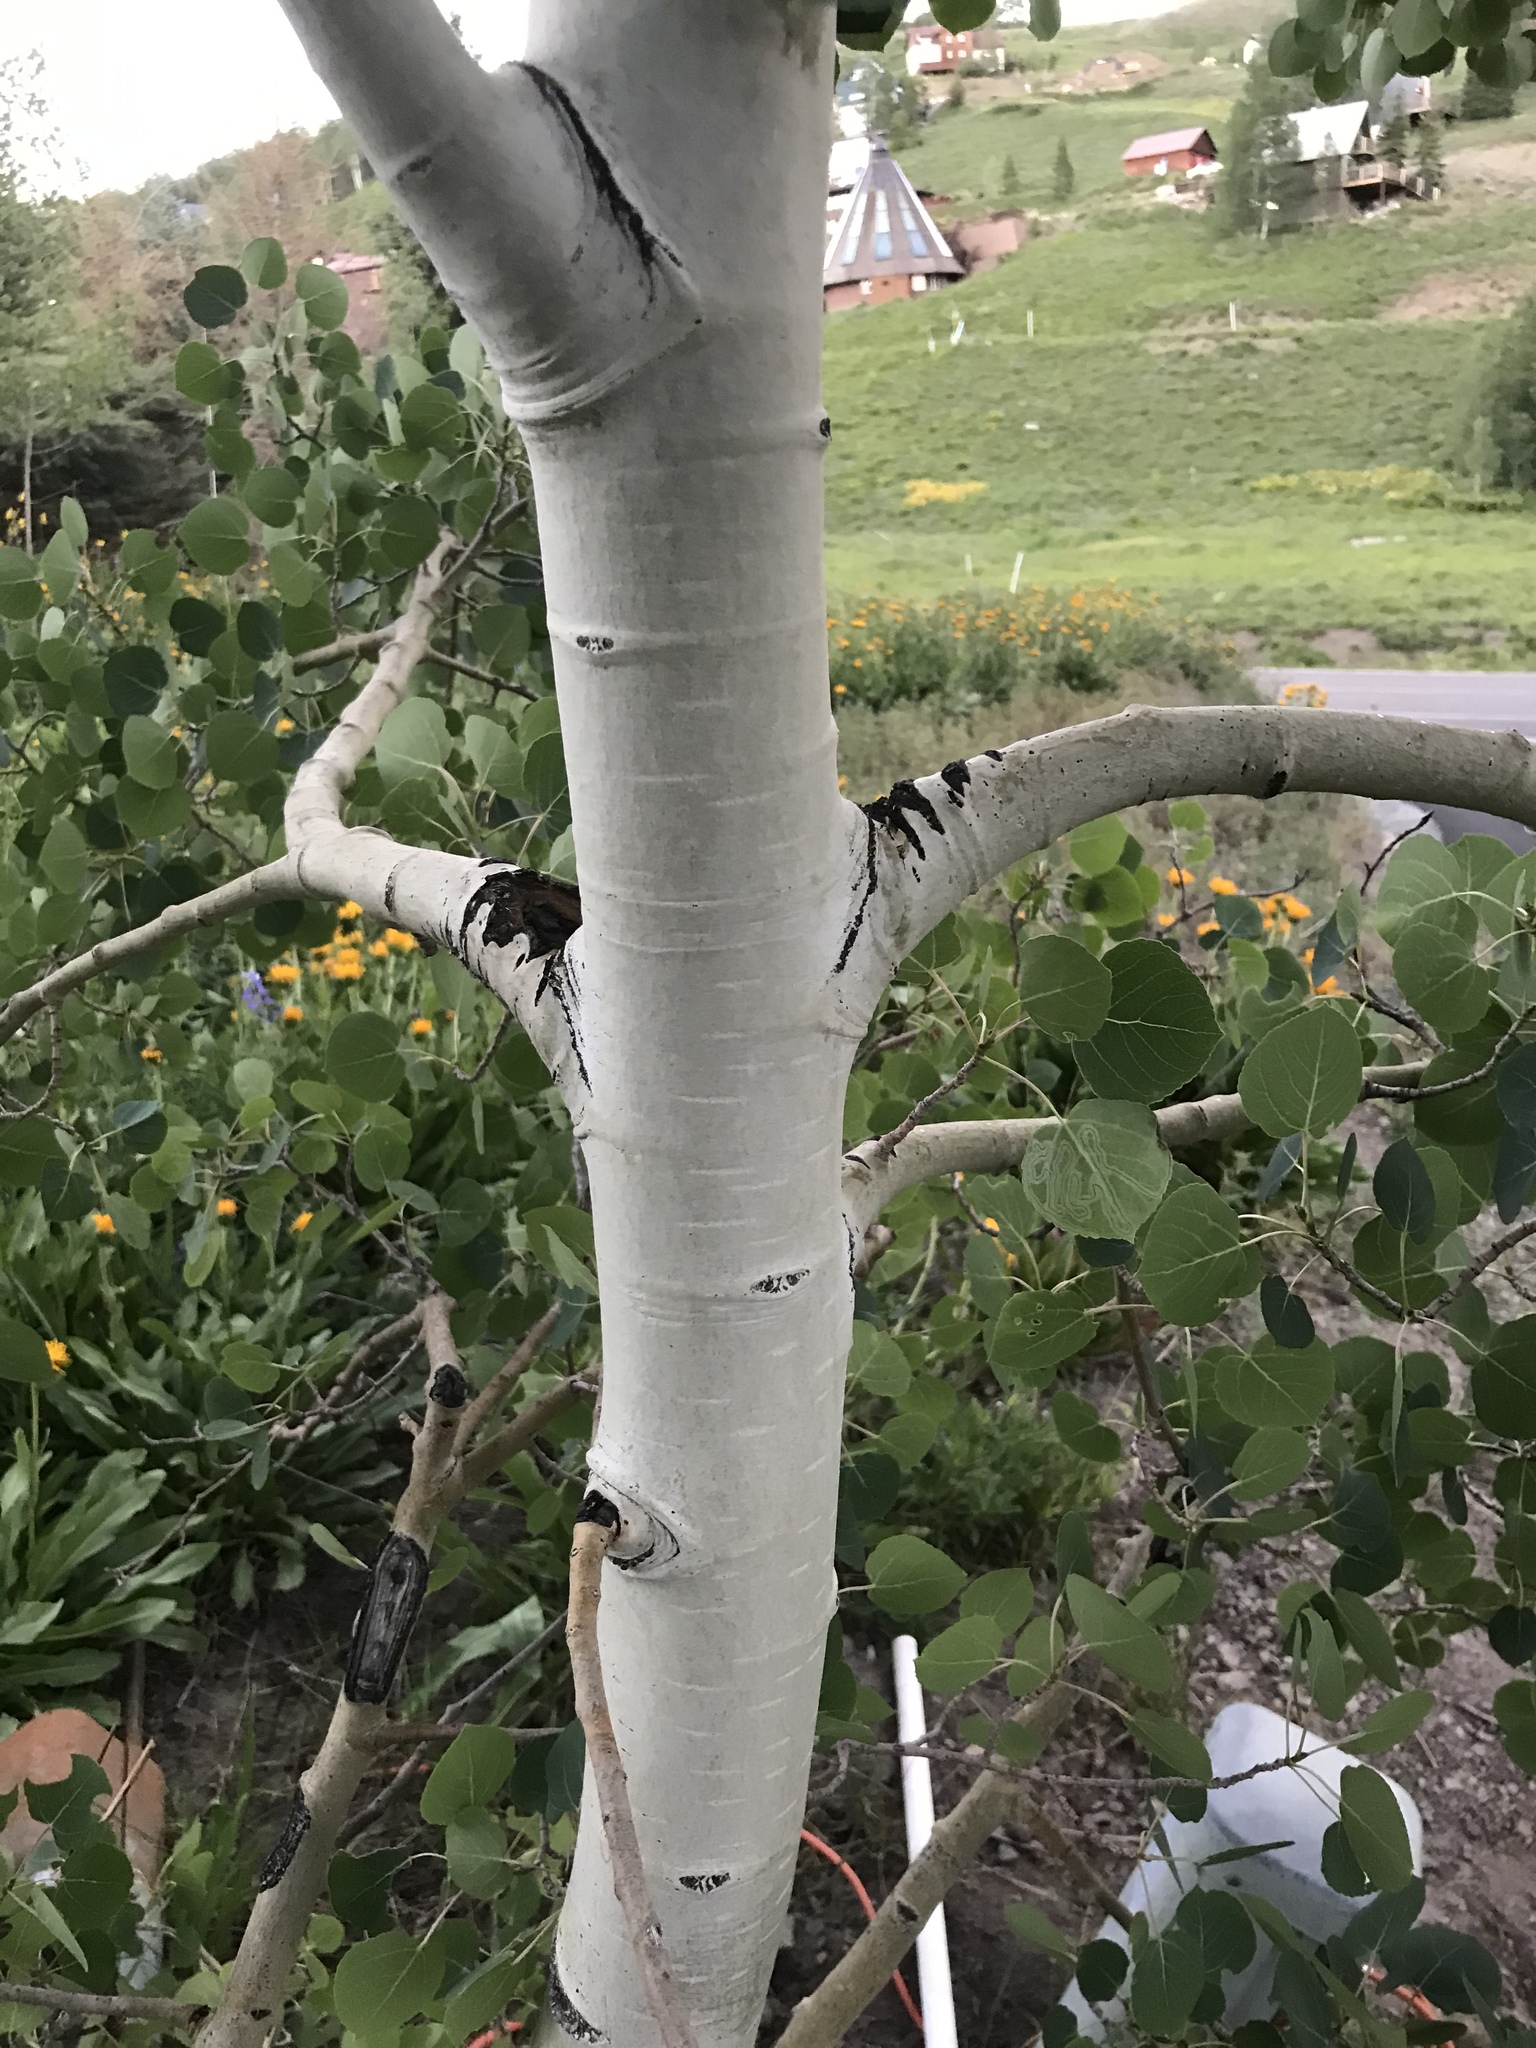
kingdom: Plantae
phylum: Tracheophyta
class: Magnoliopsida
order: Malpighiales
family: Salicaceae
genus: Populus
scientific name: Populus tremuloides
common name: Quaking aspen
